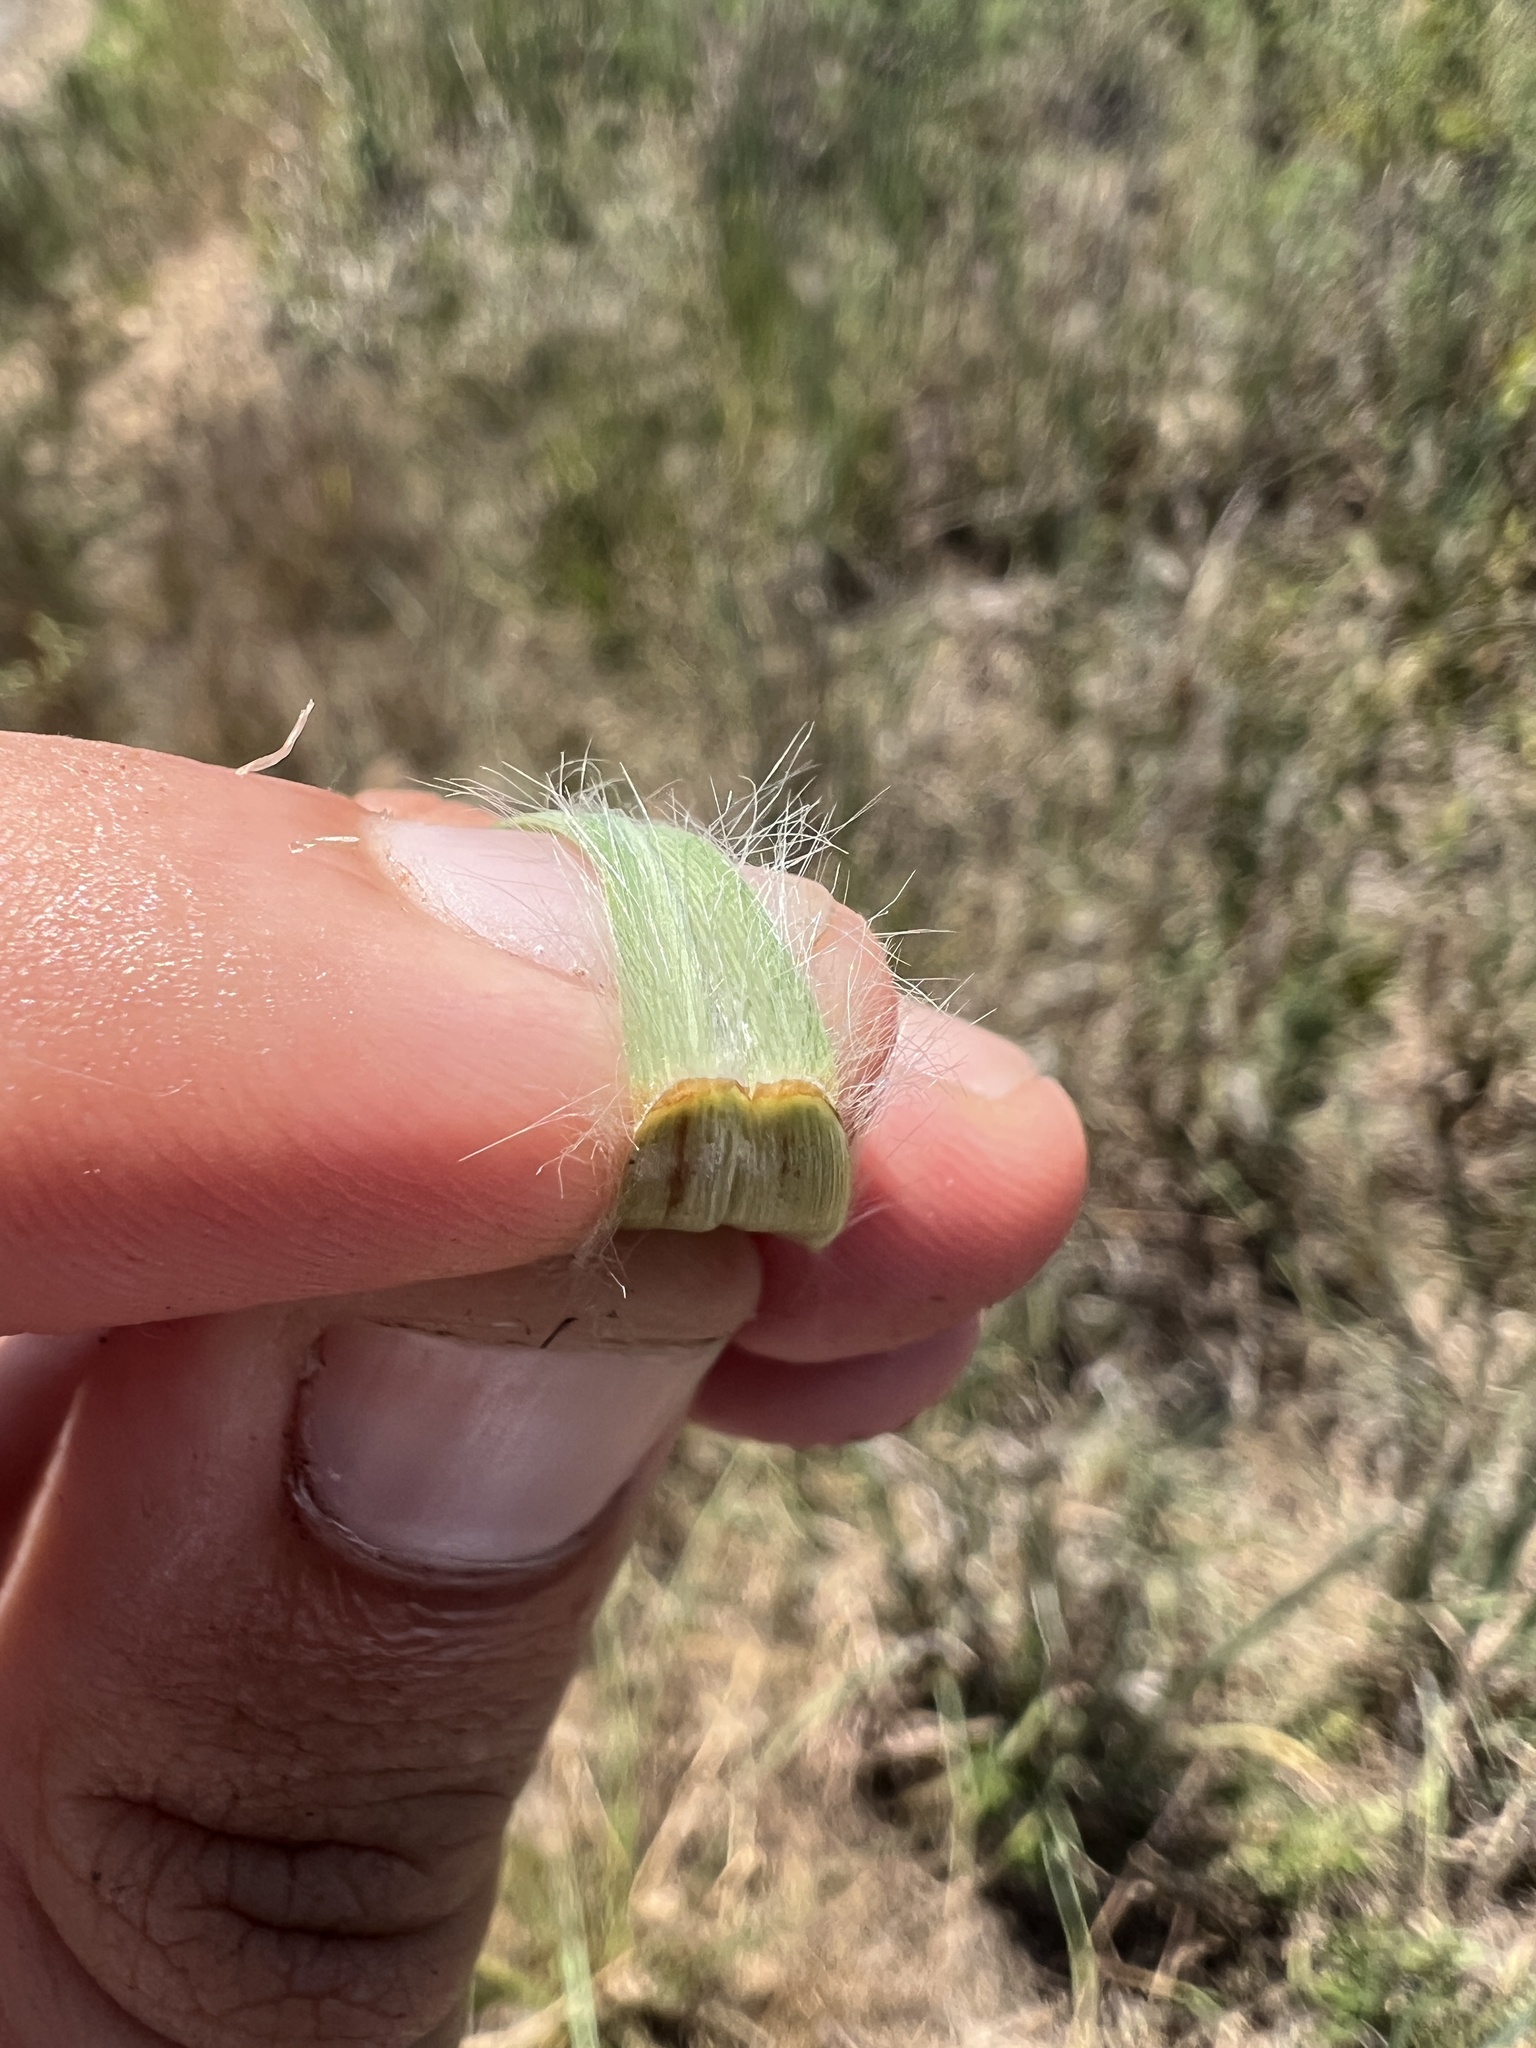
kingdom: Plantae
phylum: Tracheophyta
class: Liliopsida
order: Poales
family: Poaceae
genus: Andropogon
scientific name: Andropogon hirsutior
